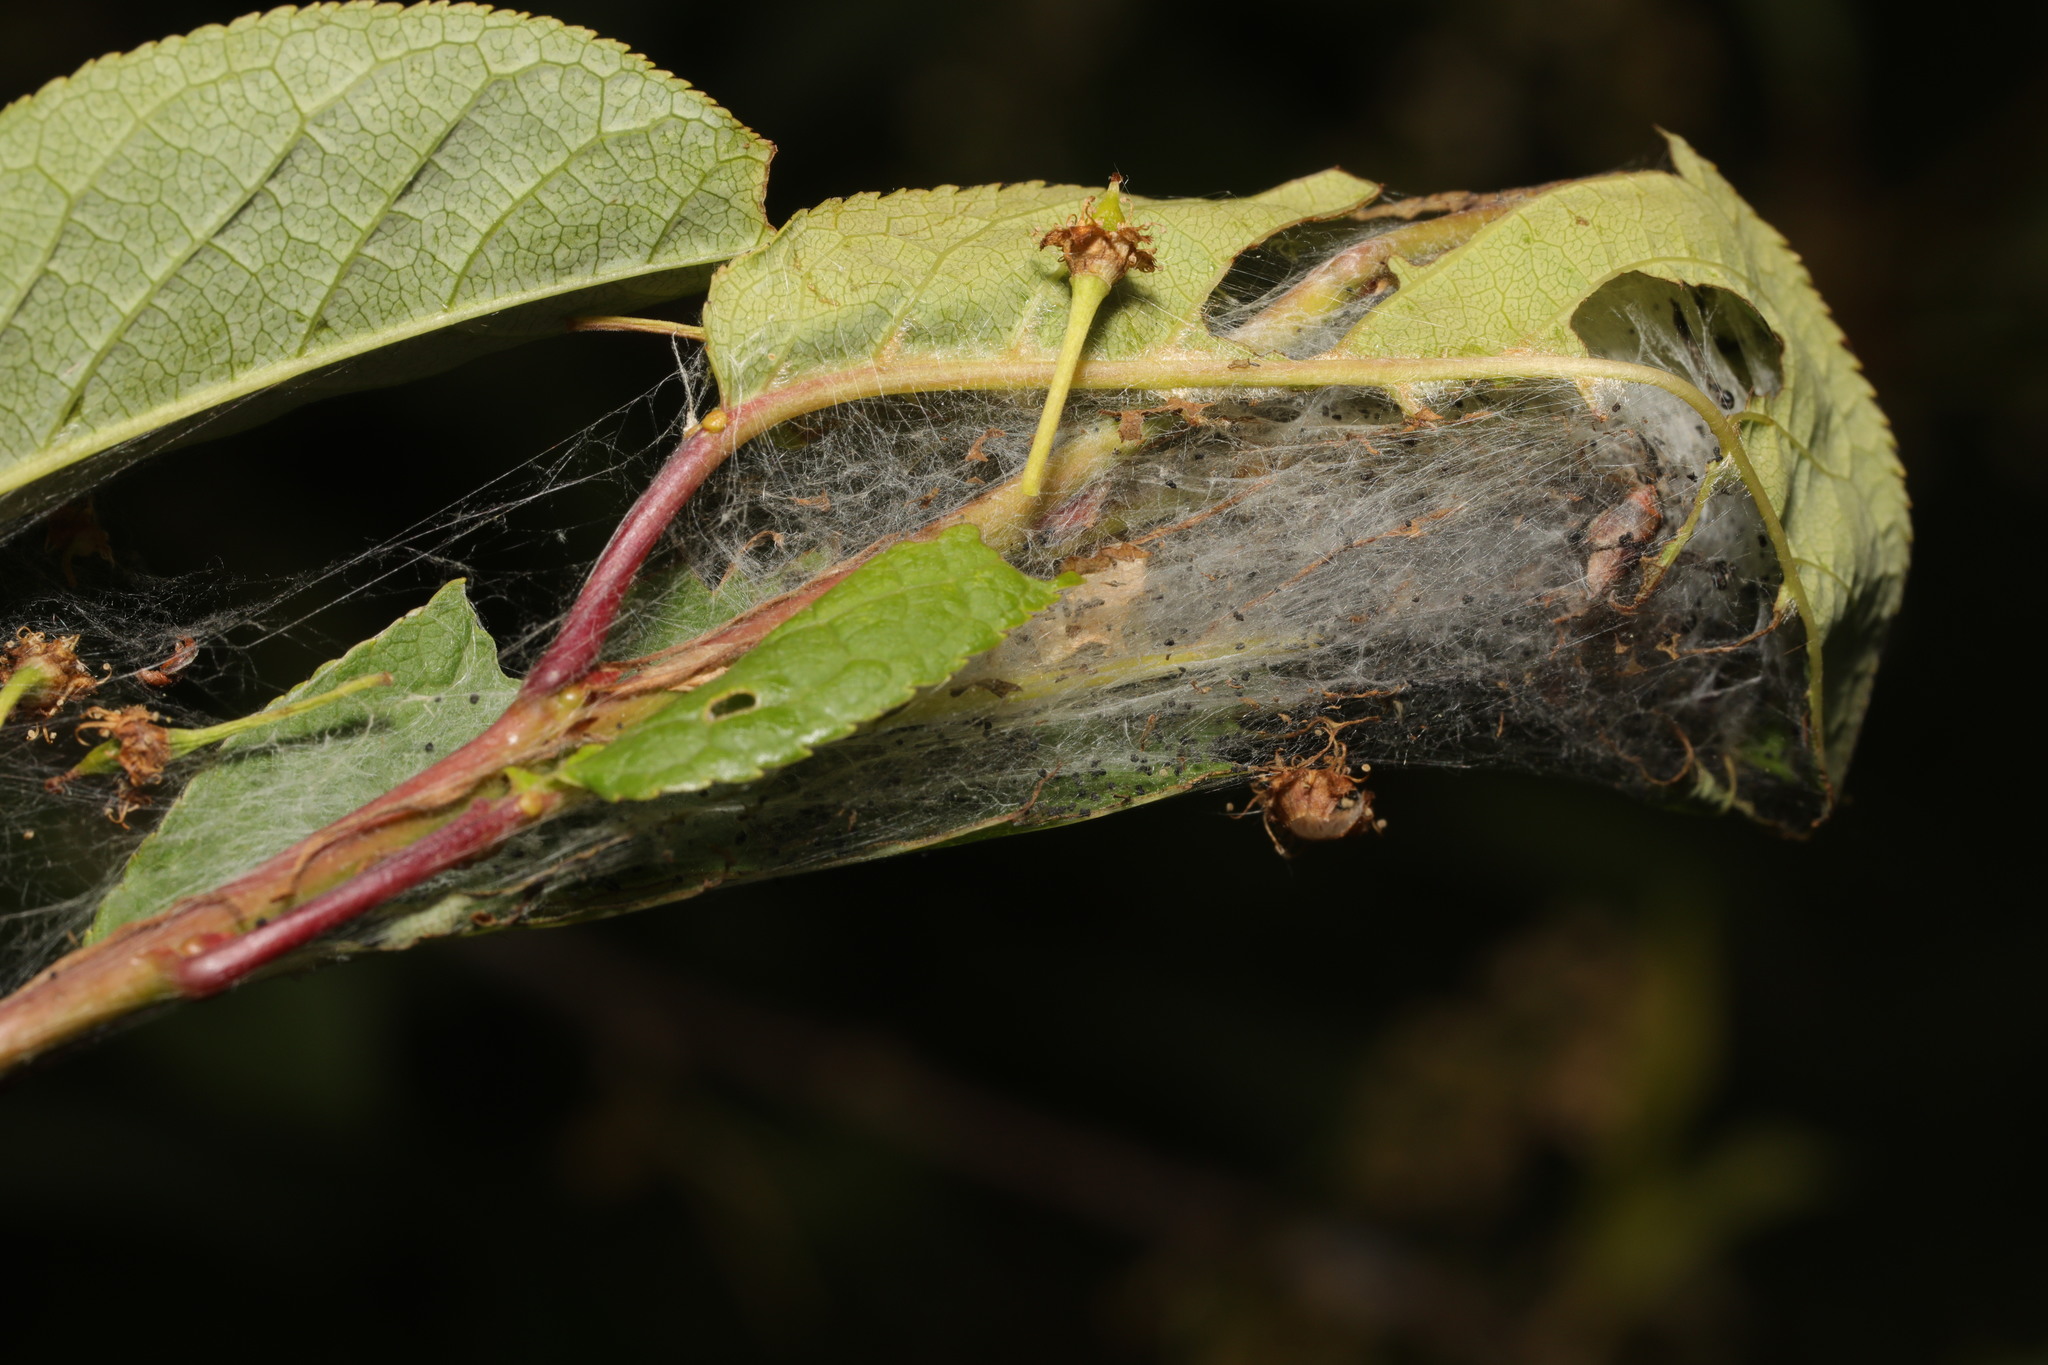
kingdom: Animalia
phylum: Arthropoda
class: Insecta
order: Lepidoptera
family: Yponomeutidae
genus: Yponomeuta
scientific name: Yponomeuta evonymella
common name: Bird-cherry ermine
